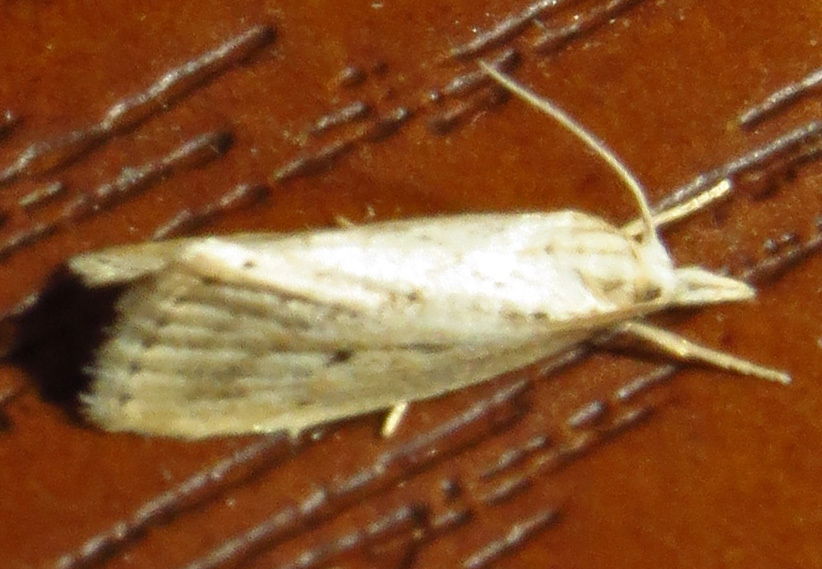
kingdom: Animalia
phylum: Arthropoda
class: Insecta
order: Lepidoptera
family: Crambidae
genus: Diatraea
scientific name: Diatraea lisetta
